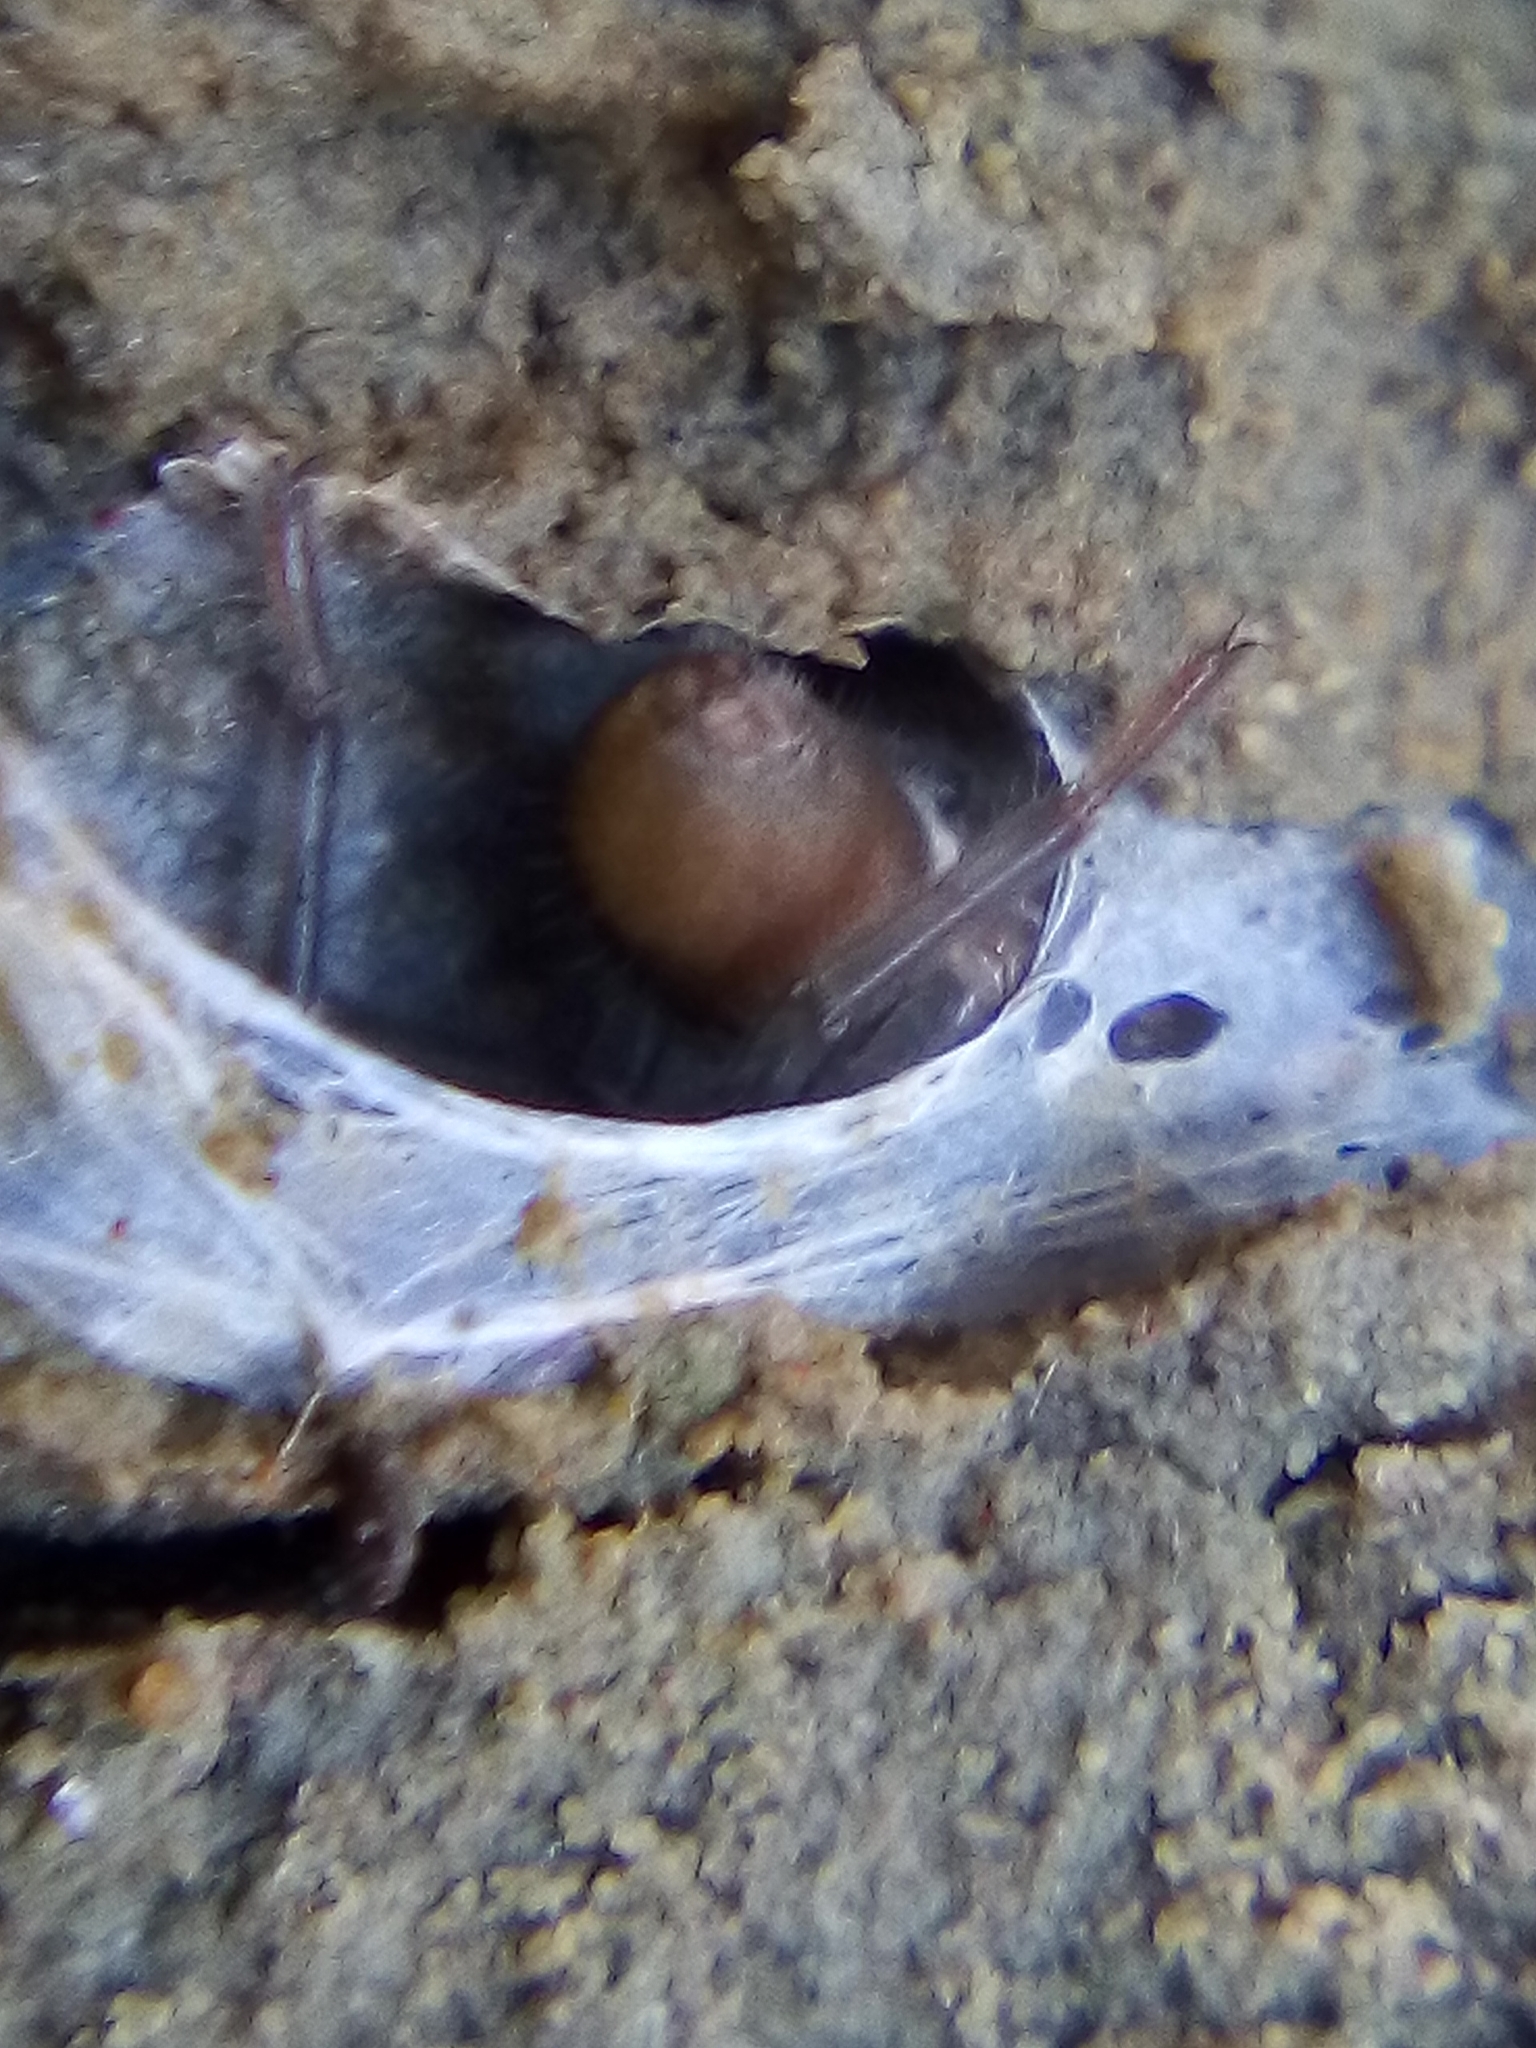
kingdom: Animalia
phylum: Arthropoda
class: Arachnida
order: Araneae
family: Desidae
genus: Desis
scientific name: Desis marina
